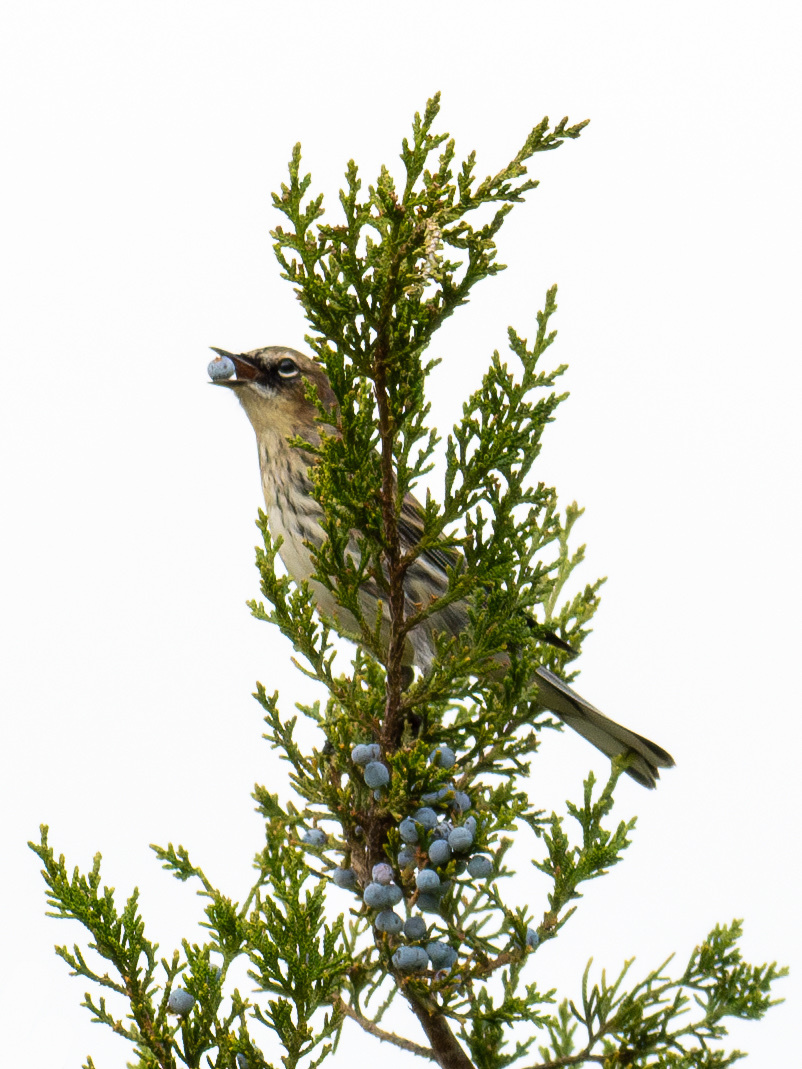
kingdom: Animalia
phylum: Chordata
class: Aves
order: Passeriformes
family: Parulidae
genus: Setophaga
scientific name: Setophaga coronata
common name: Myrtle warbler
